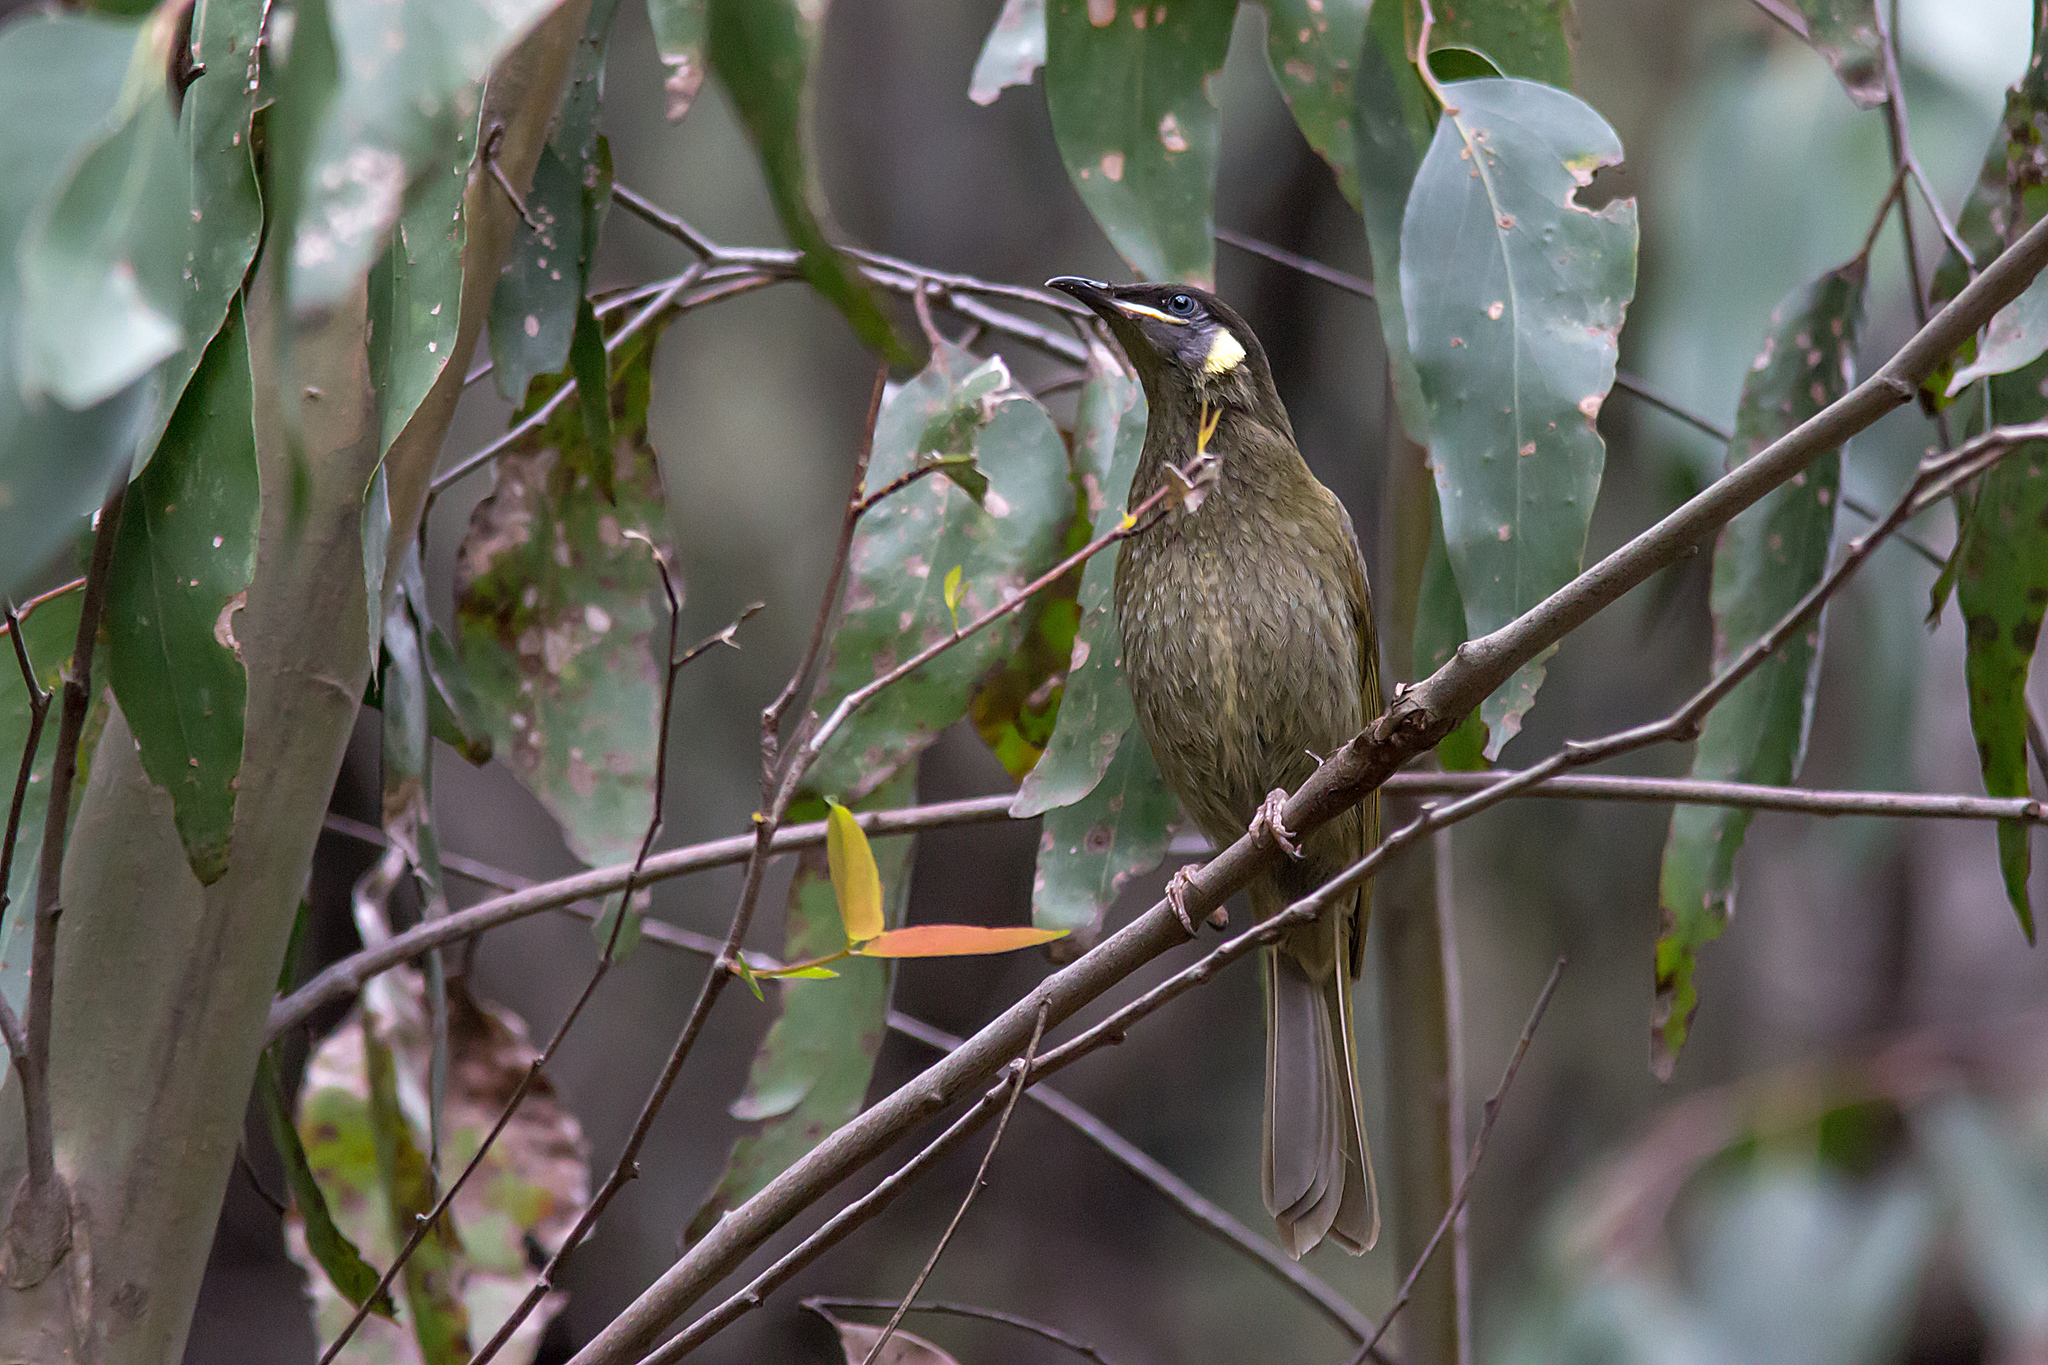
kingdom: Animalia
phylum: Chordata
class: Aves
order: Passeriformes
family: Meliphagidae
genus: Meliphaga
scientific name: Meliphaga lewinii
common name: Lewin's honeyeater
